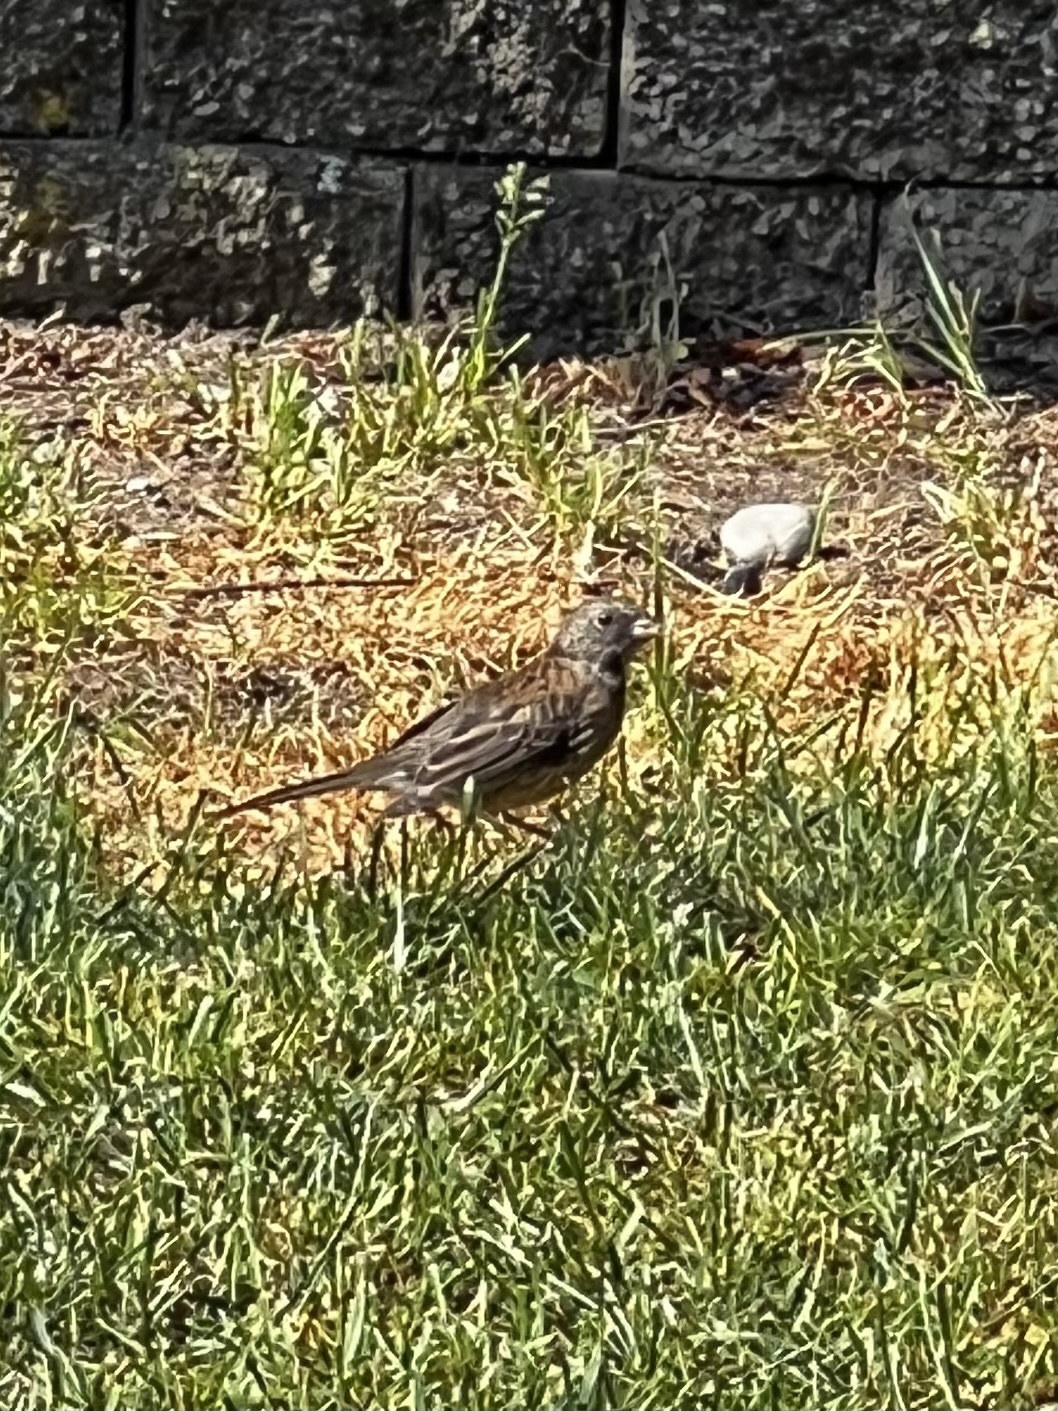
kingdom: Animalia
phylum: Chordata
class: Aves
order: Passeriformes
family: Passerellidae
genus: Junco
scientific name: Junco hyemalis
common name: Dark-eyed junco
